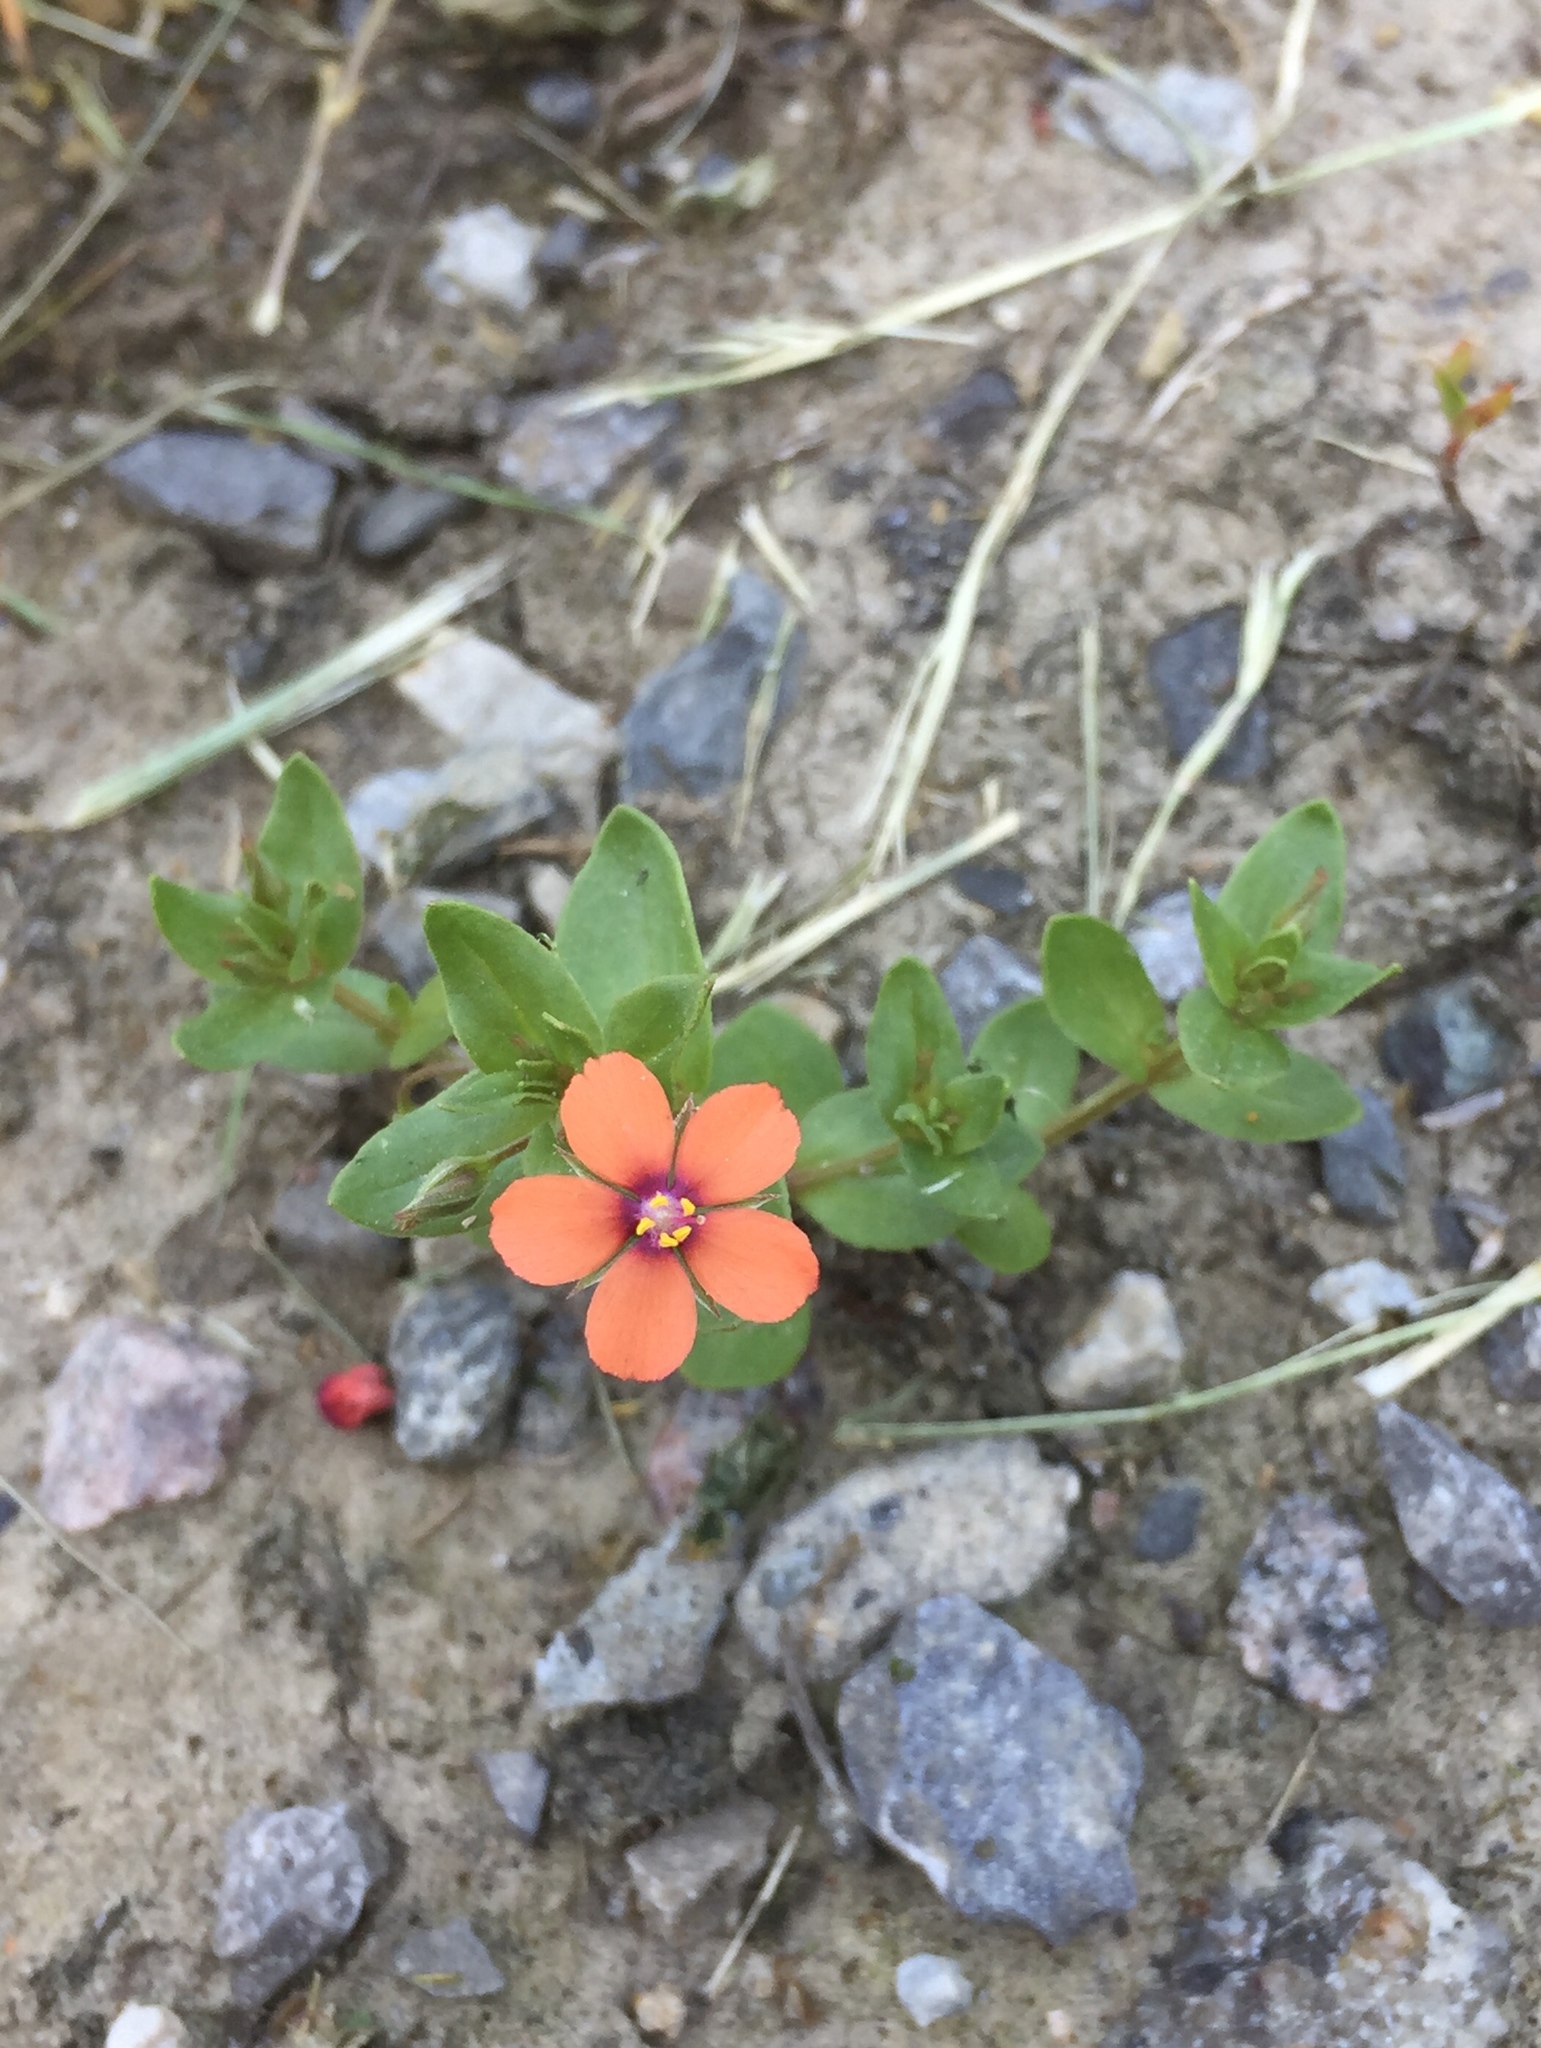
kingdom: Plantae
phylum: Tracheophyta
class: Magnoliopsida
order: Ericales
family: Primulaceae
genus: Lysimachia
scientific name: Lysimachia arvensis
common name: Scarlet pimpernel
